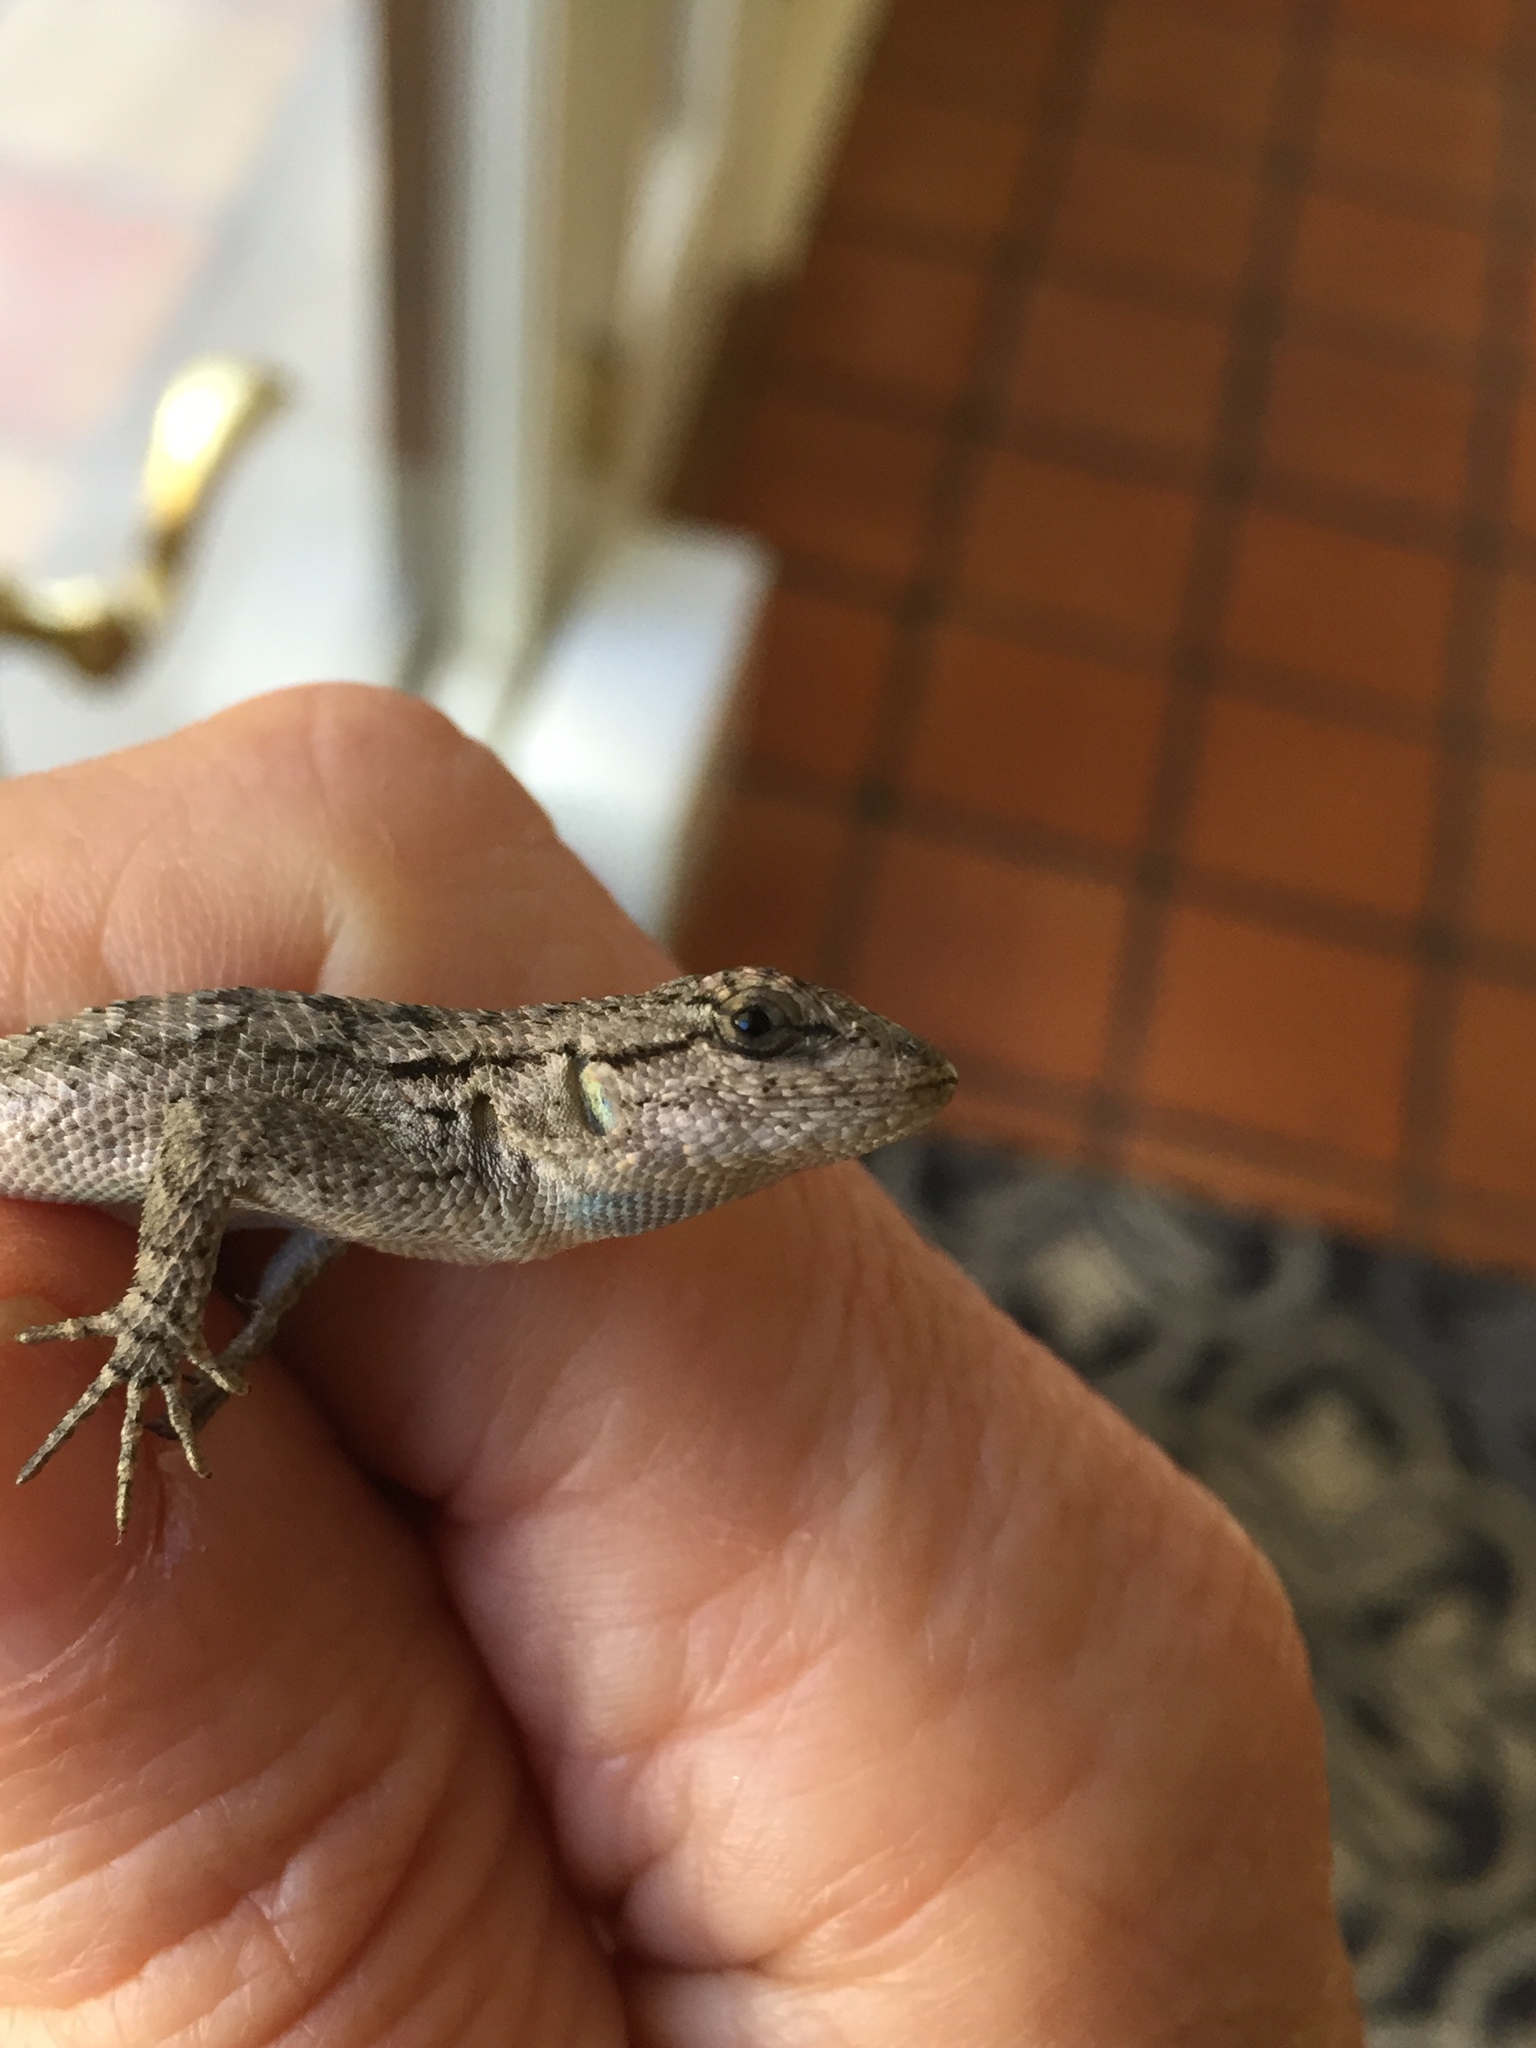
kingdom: Animalia
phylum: Chordata
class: Squamata
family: Phrynosomatidae
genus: Sceloporus
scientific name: Sceloporus occidentalis
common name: Western fence lizard
